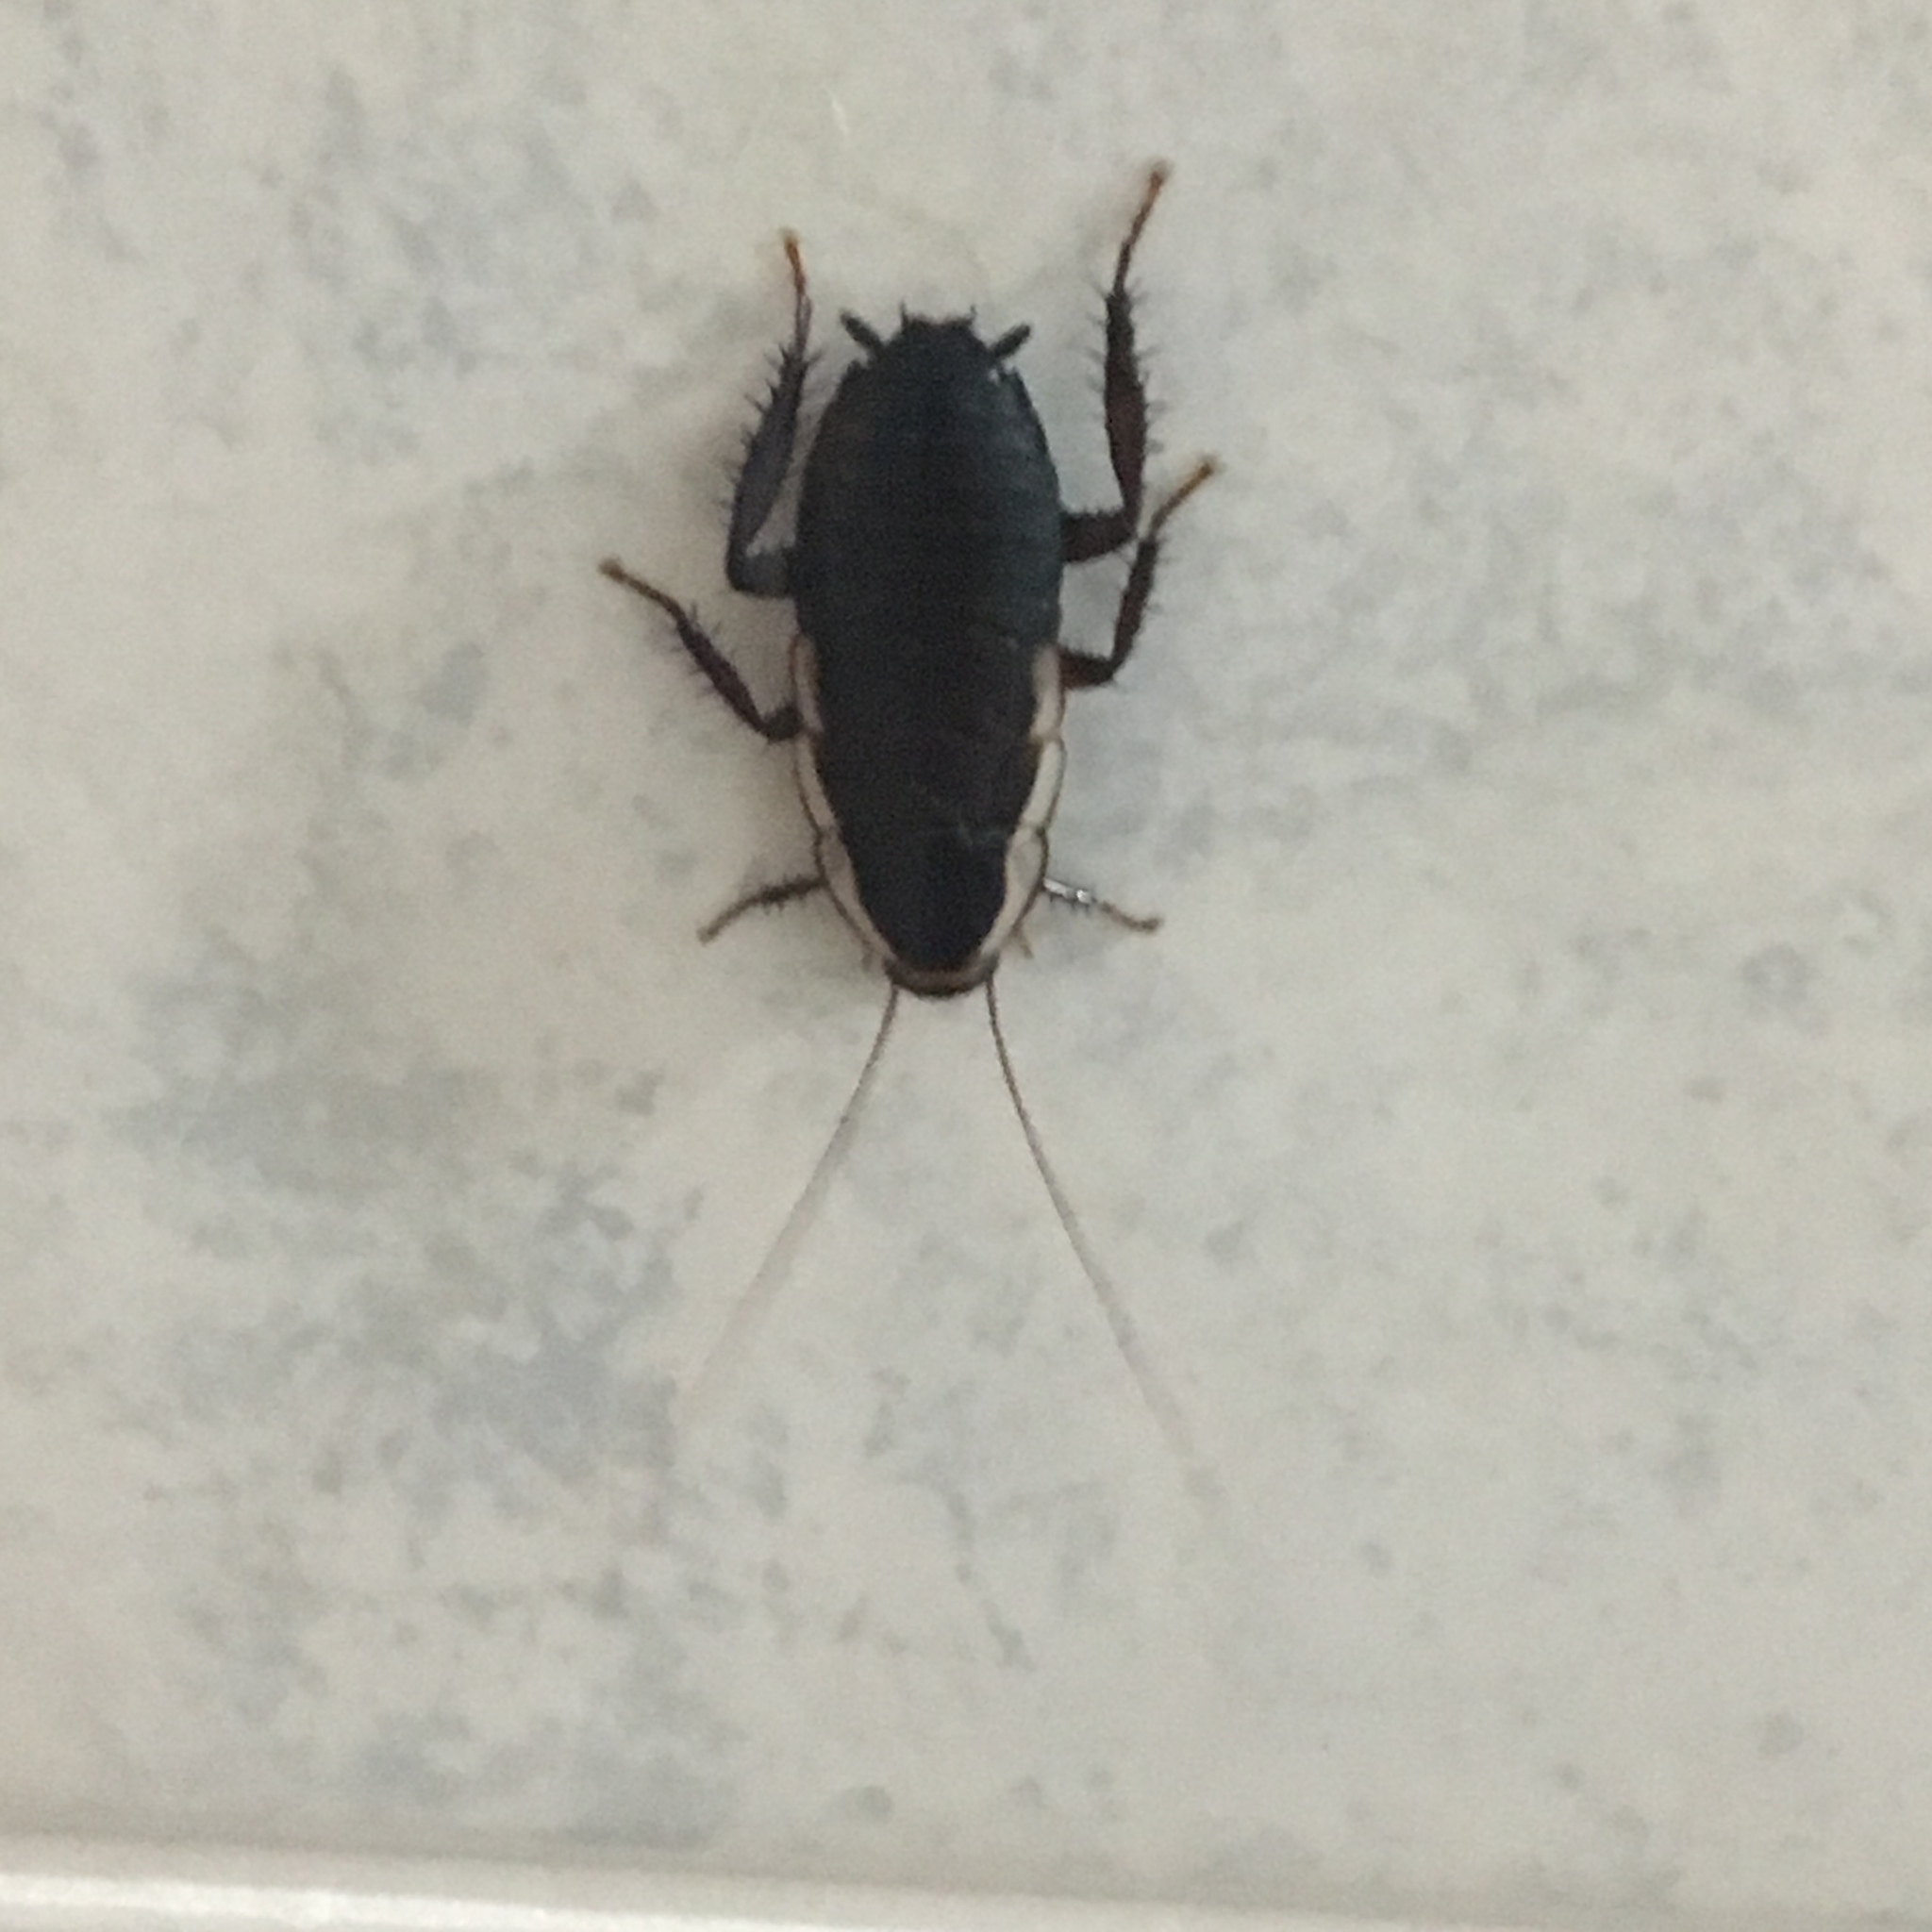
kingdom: Animalia
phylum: Arthropoda
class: Insecta
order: Blattodea
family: Blattidae
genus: Drymaplaneta
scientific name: Drymaplaneta semivitta
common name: Gisborne cockroach
